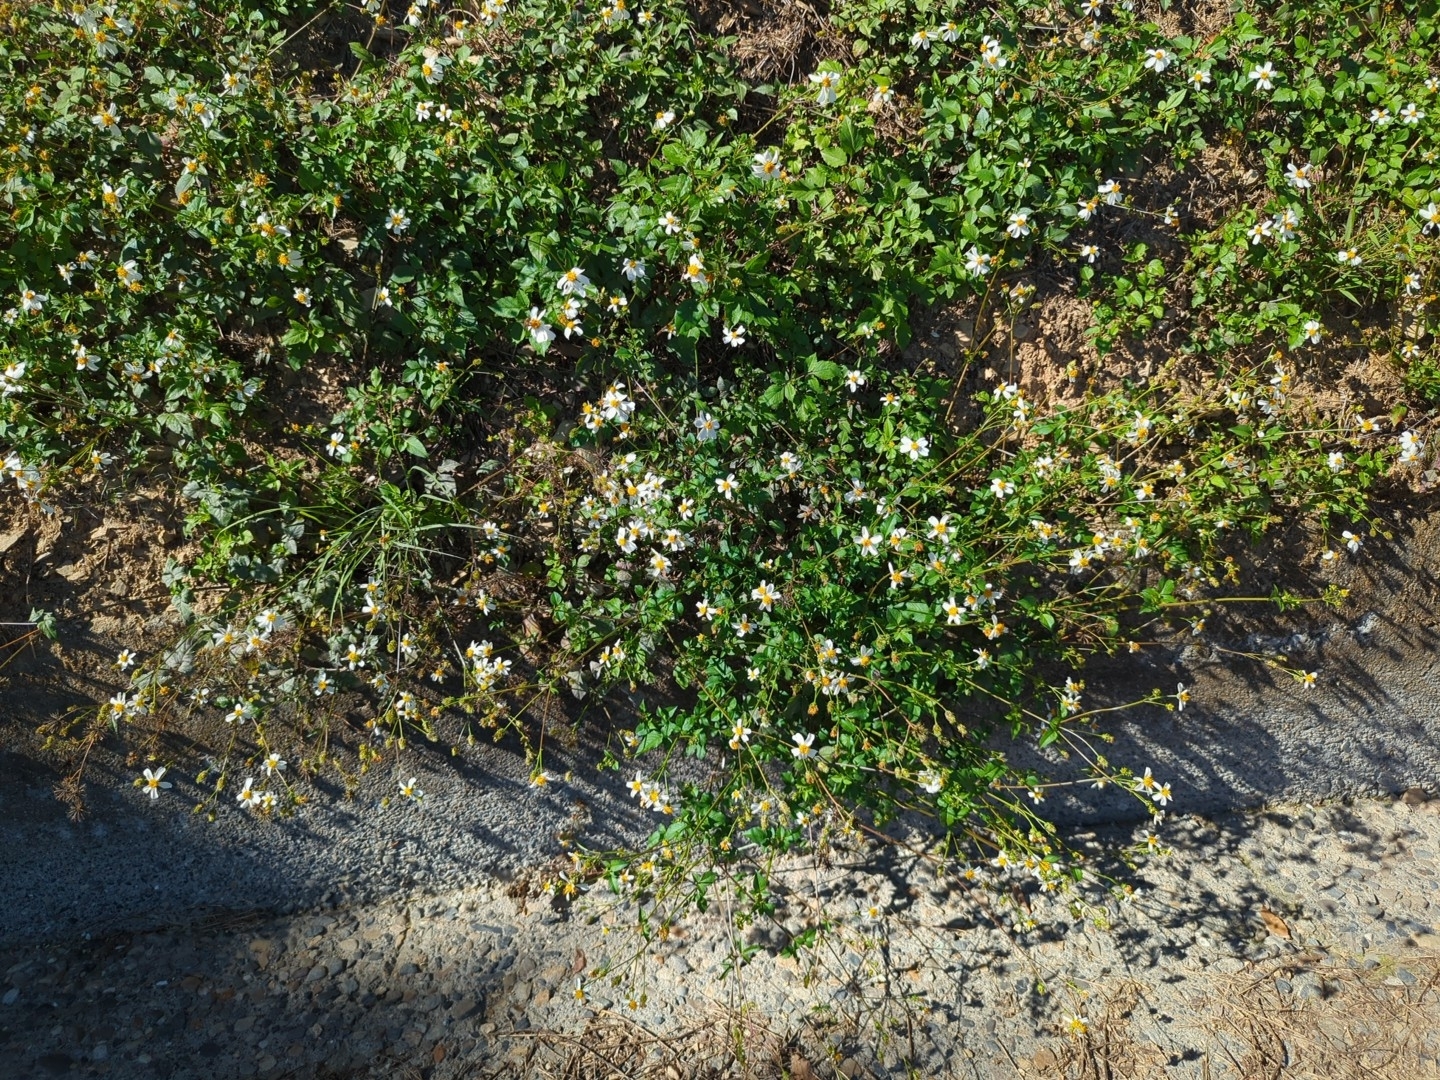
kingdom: Plantae
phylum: Tracheophyta
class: Magnoliopsida
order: Asterales
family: Asteraceae
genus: Bidens
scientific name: Bidens alba
